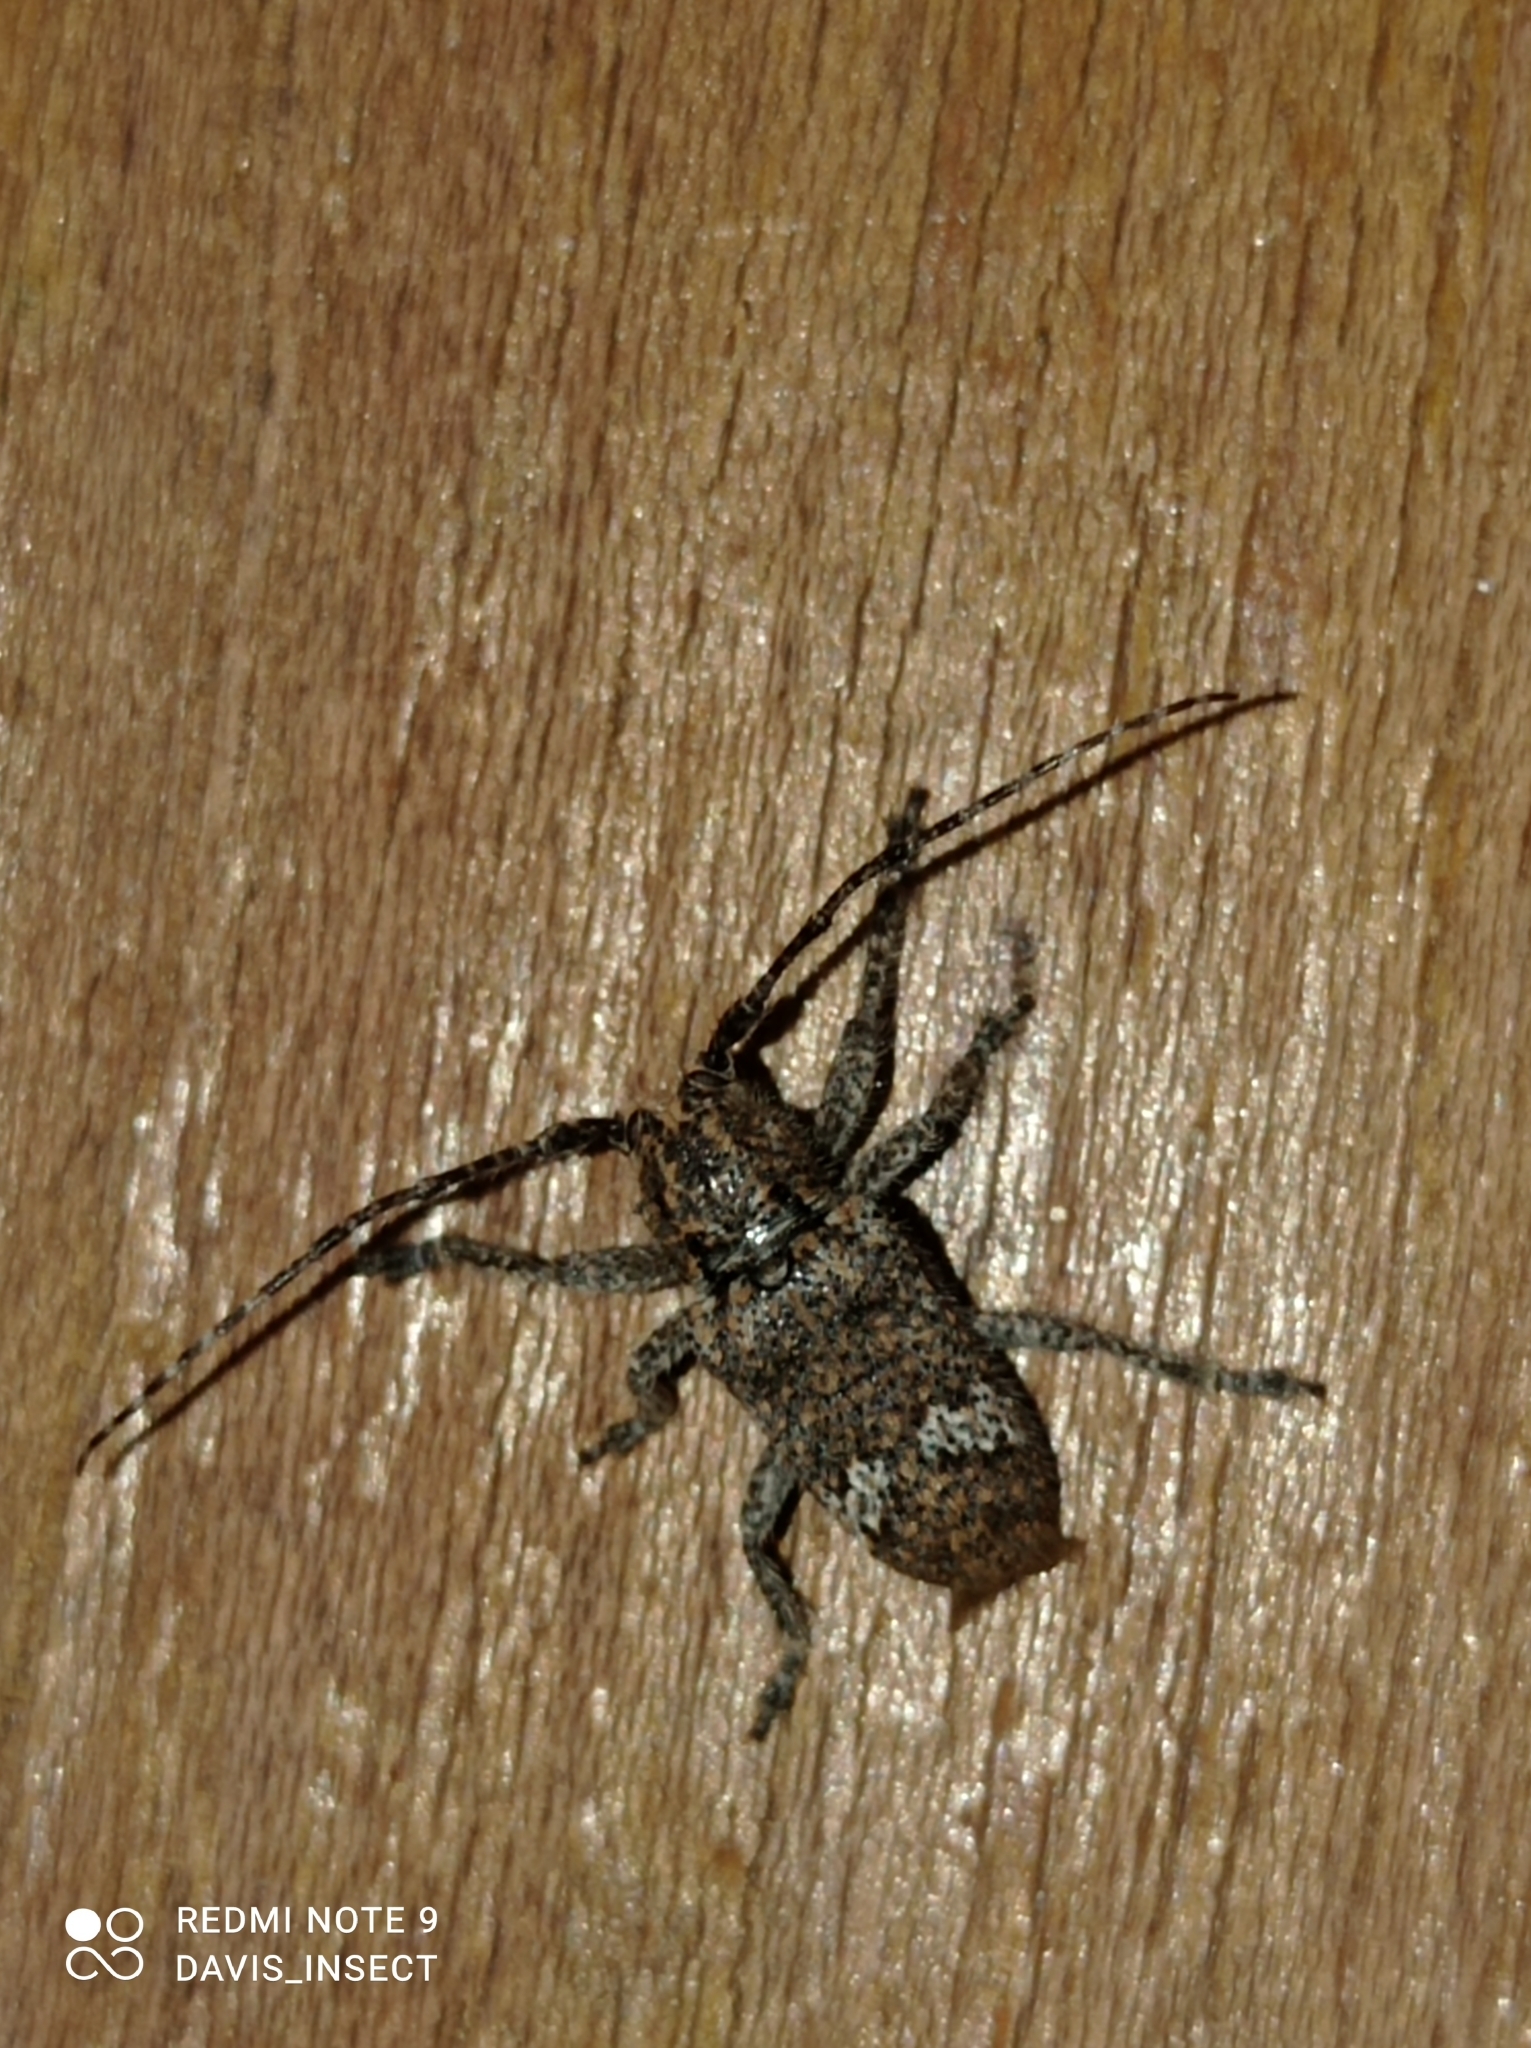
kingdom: Animalia
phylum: Arthropoda
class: Insecta
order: Coleoptera
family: Cerambycidae
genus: Rhytiphora
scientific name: Rhytiphora bankii
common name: Prosoplus long horned beetle
